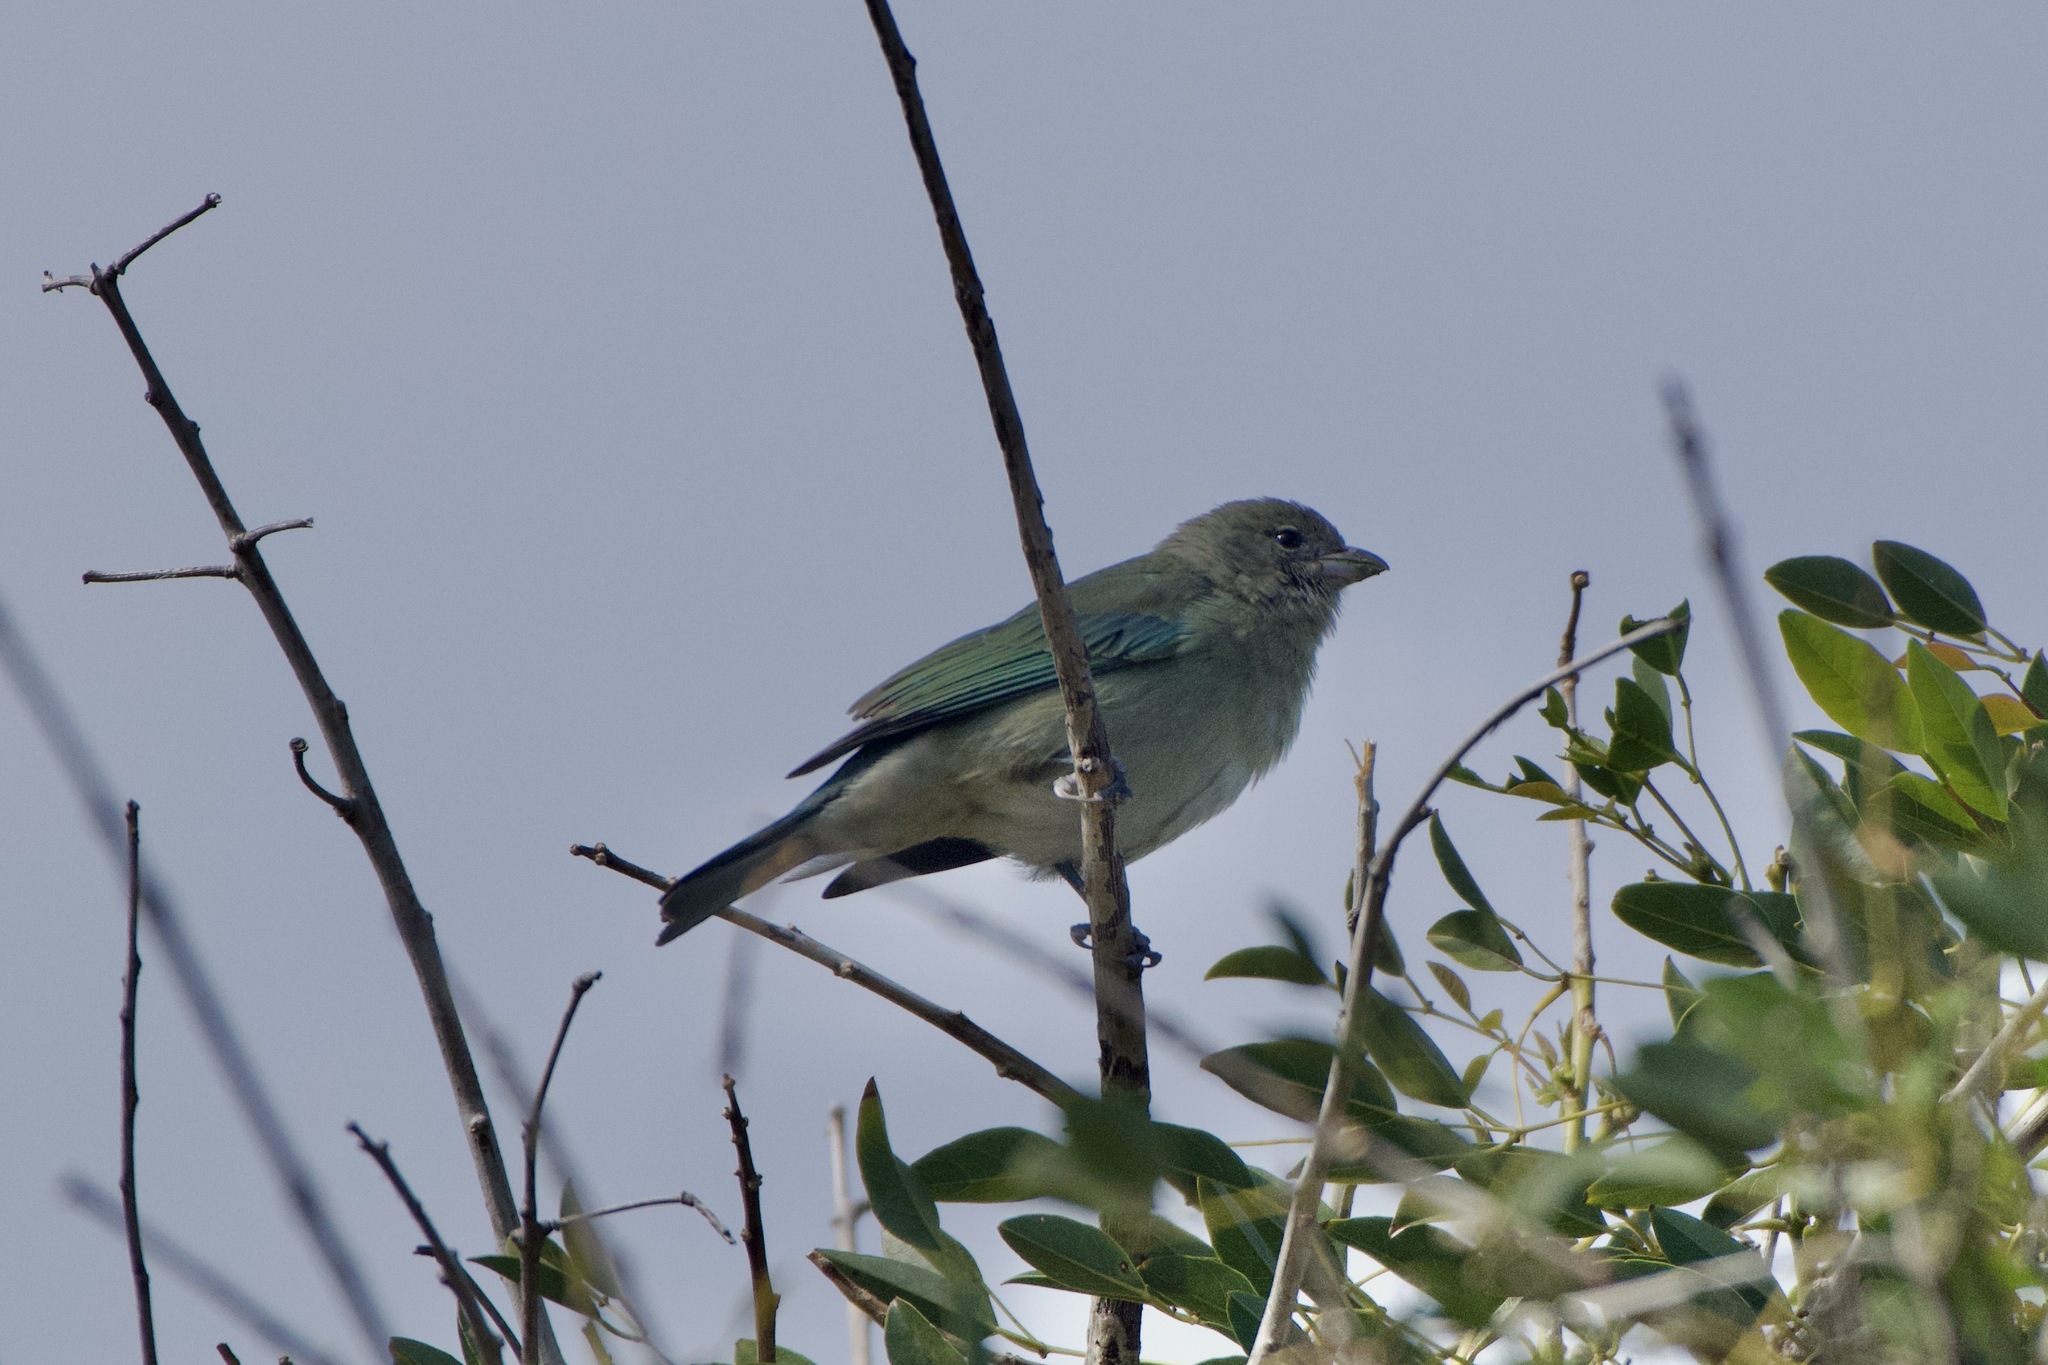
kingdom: Animalia
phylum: Chordata
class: Aves
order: Passeriformes
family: Thraupidae
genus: Thraupis
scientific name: Thraupis sayaca
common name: Sayaca tanager
